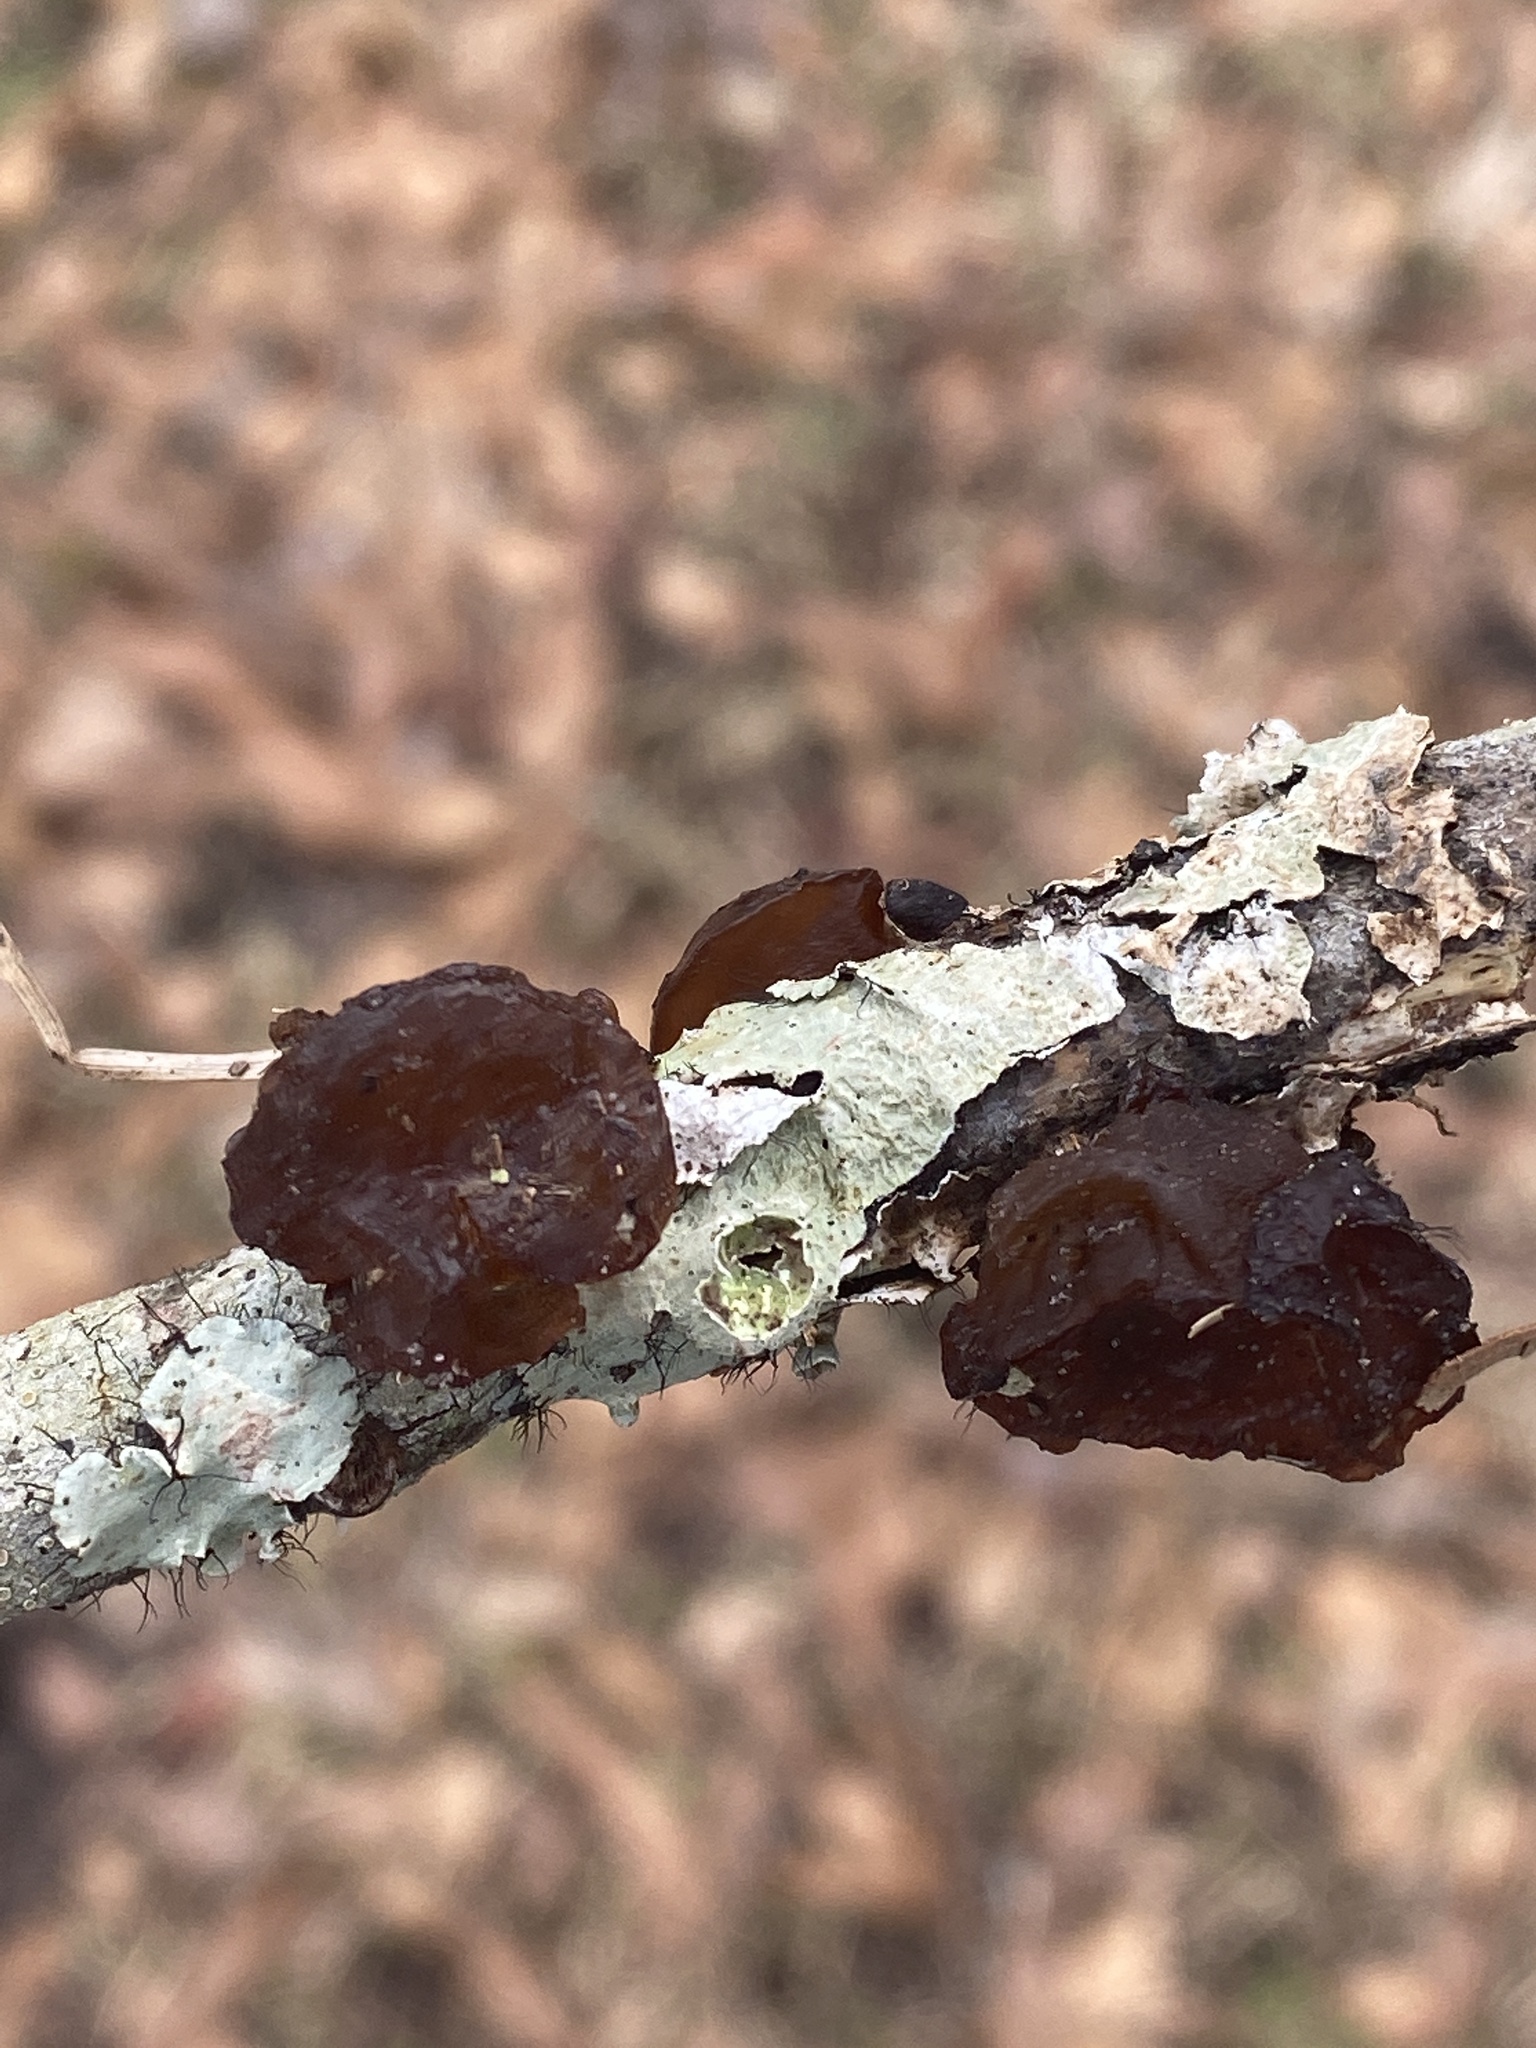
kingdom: Fungi
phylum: Basidiomycota
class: Agaricomycetes
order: Auriculariales
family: Auriculariaceae
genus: Exidia
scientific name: Exidia
